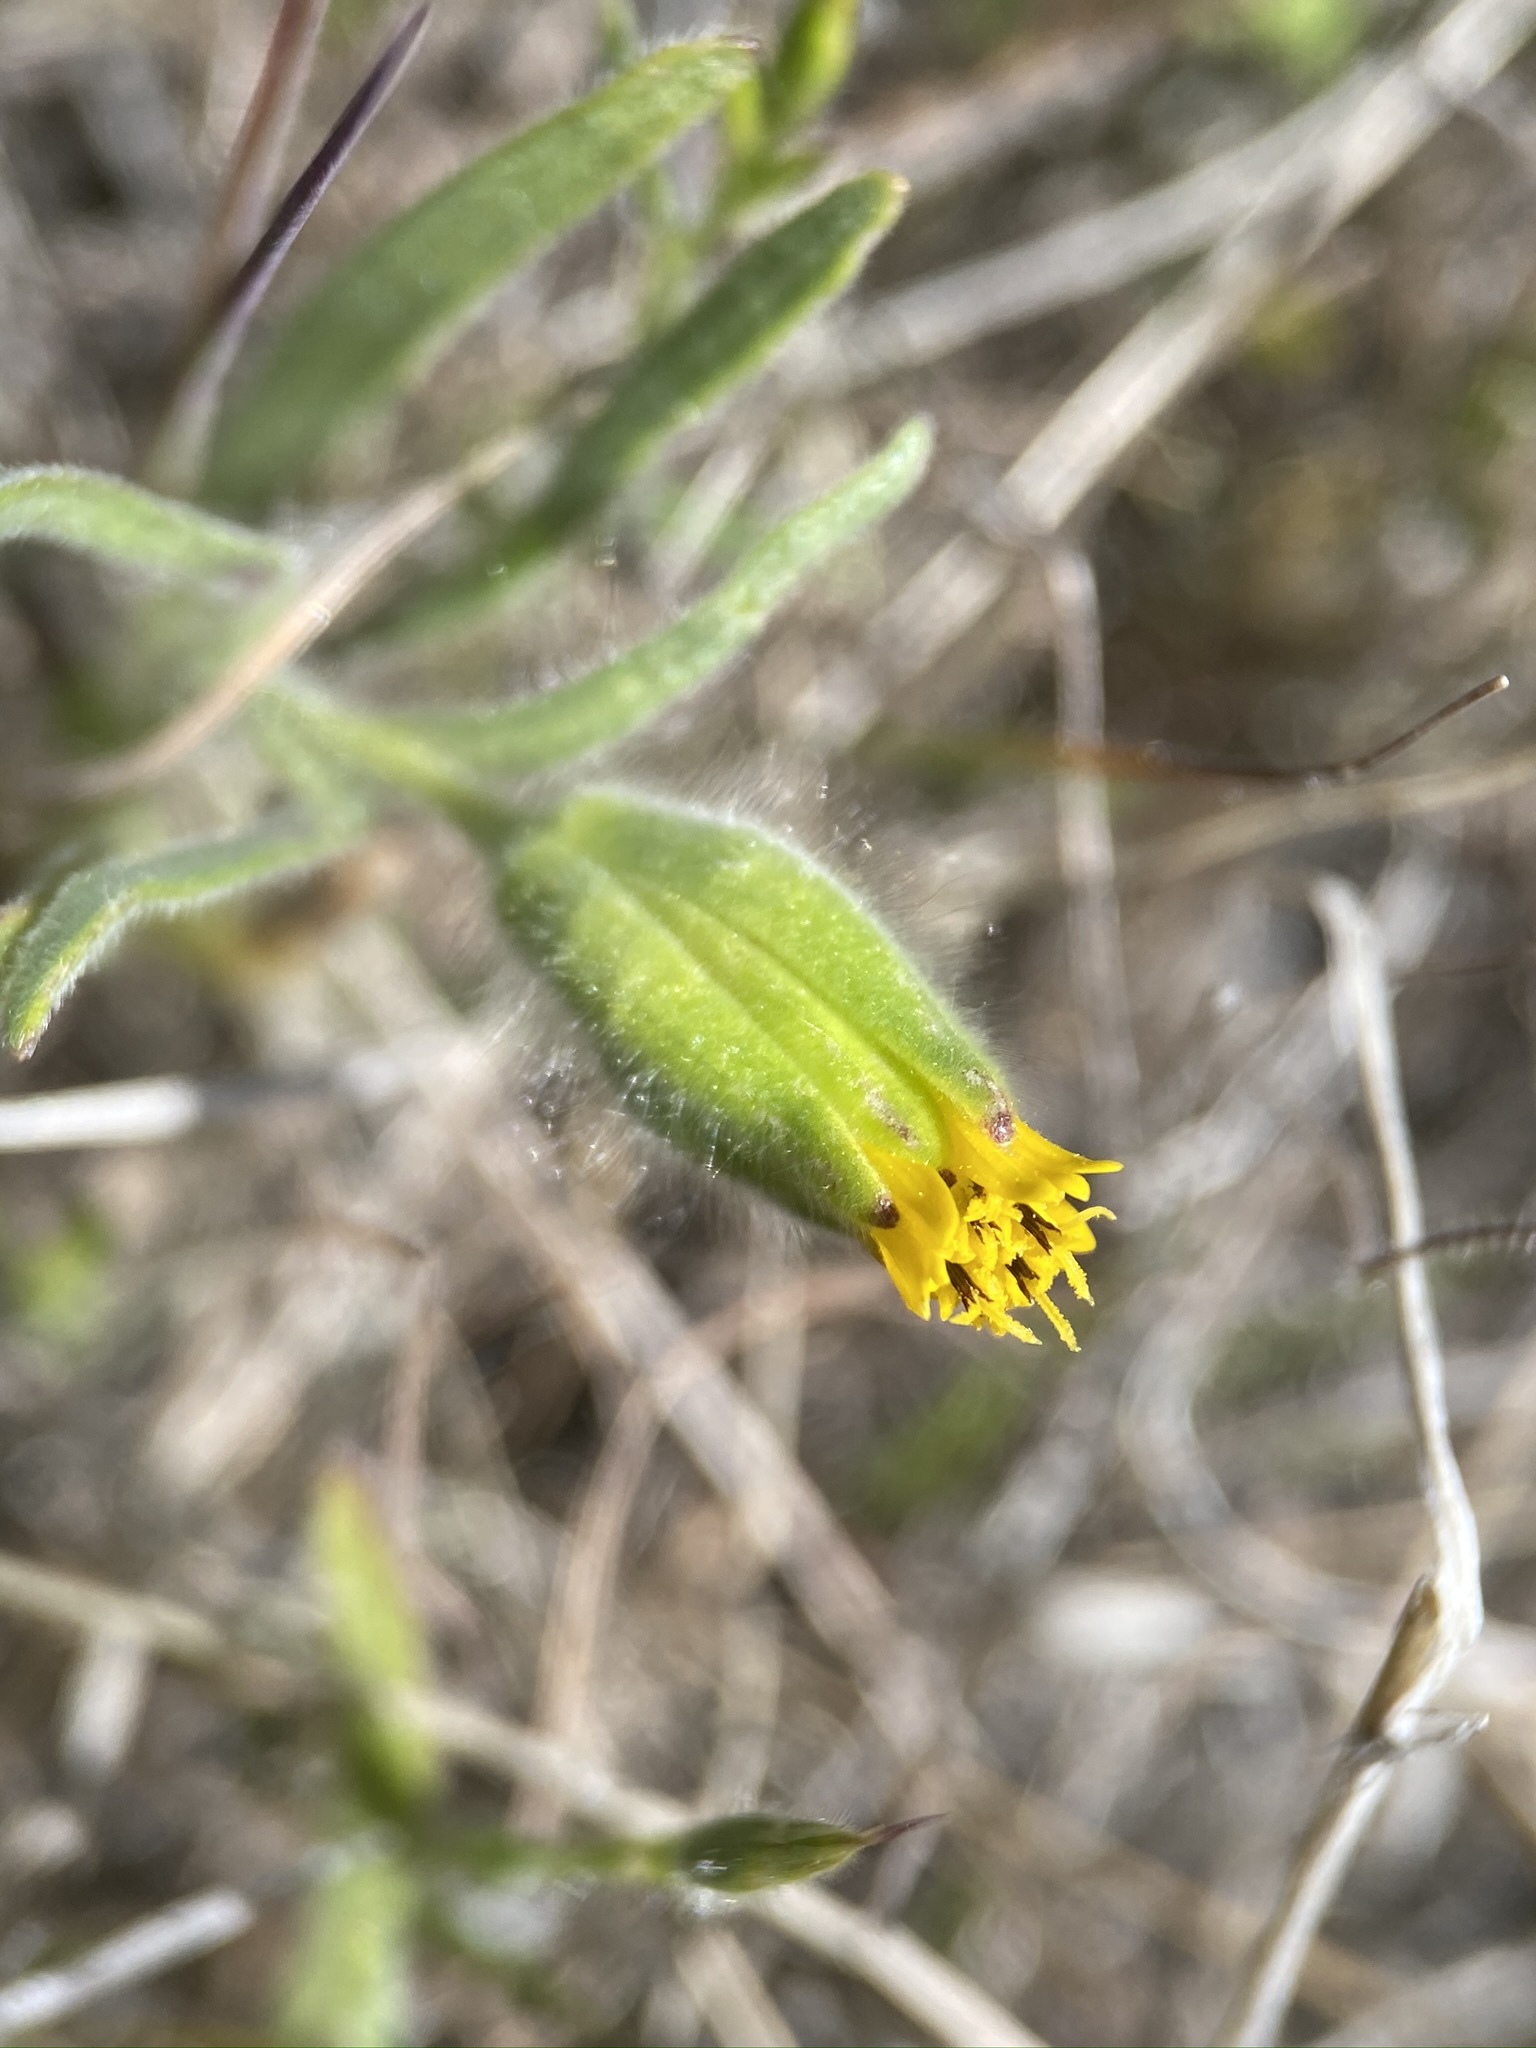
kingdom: Plantae
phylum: Tracheophyta
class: Magnoliopsida
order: Asterales
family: Asteraceae
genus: Achyrachaena
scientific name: Achyrachaena mollis
